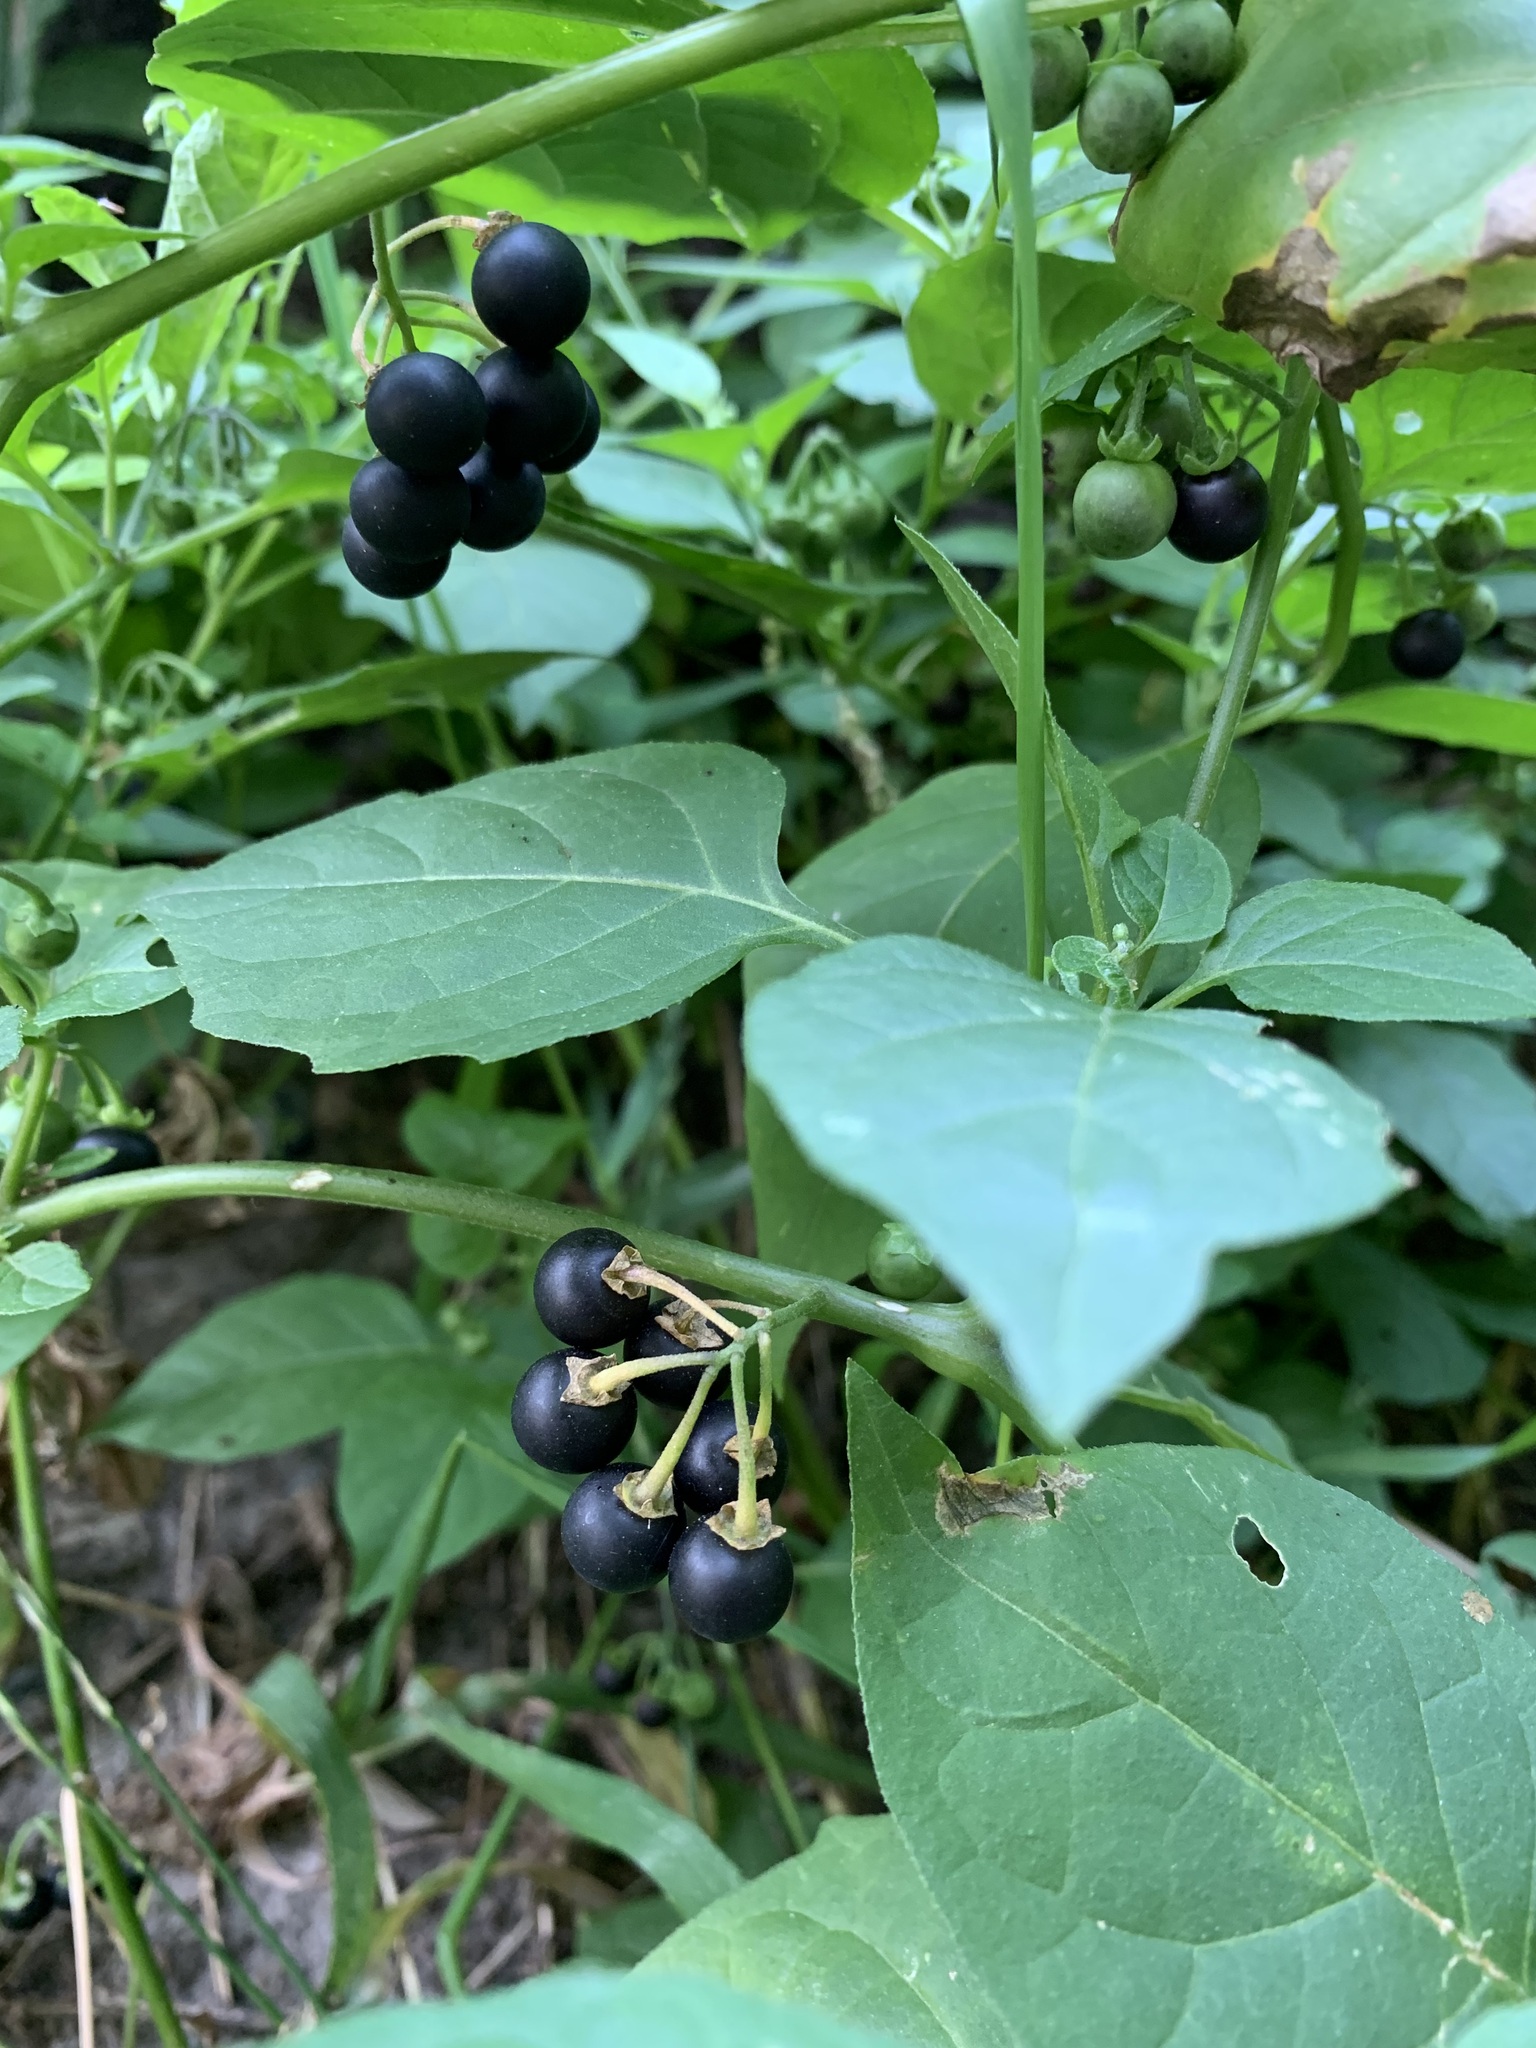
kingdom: Plantae
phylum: Tracheophyta
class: Magnoliopsida
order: Solanales
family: Solanaceae
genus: Solanum
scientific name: Solanum nigrum
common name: Black nightshade
